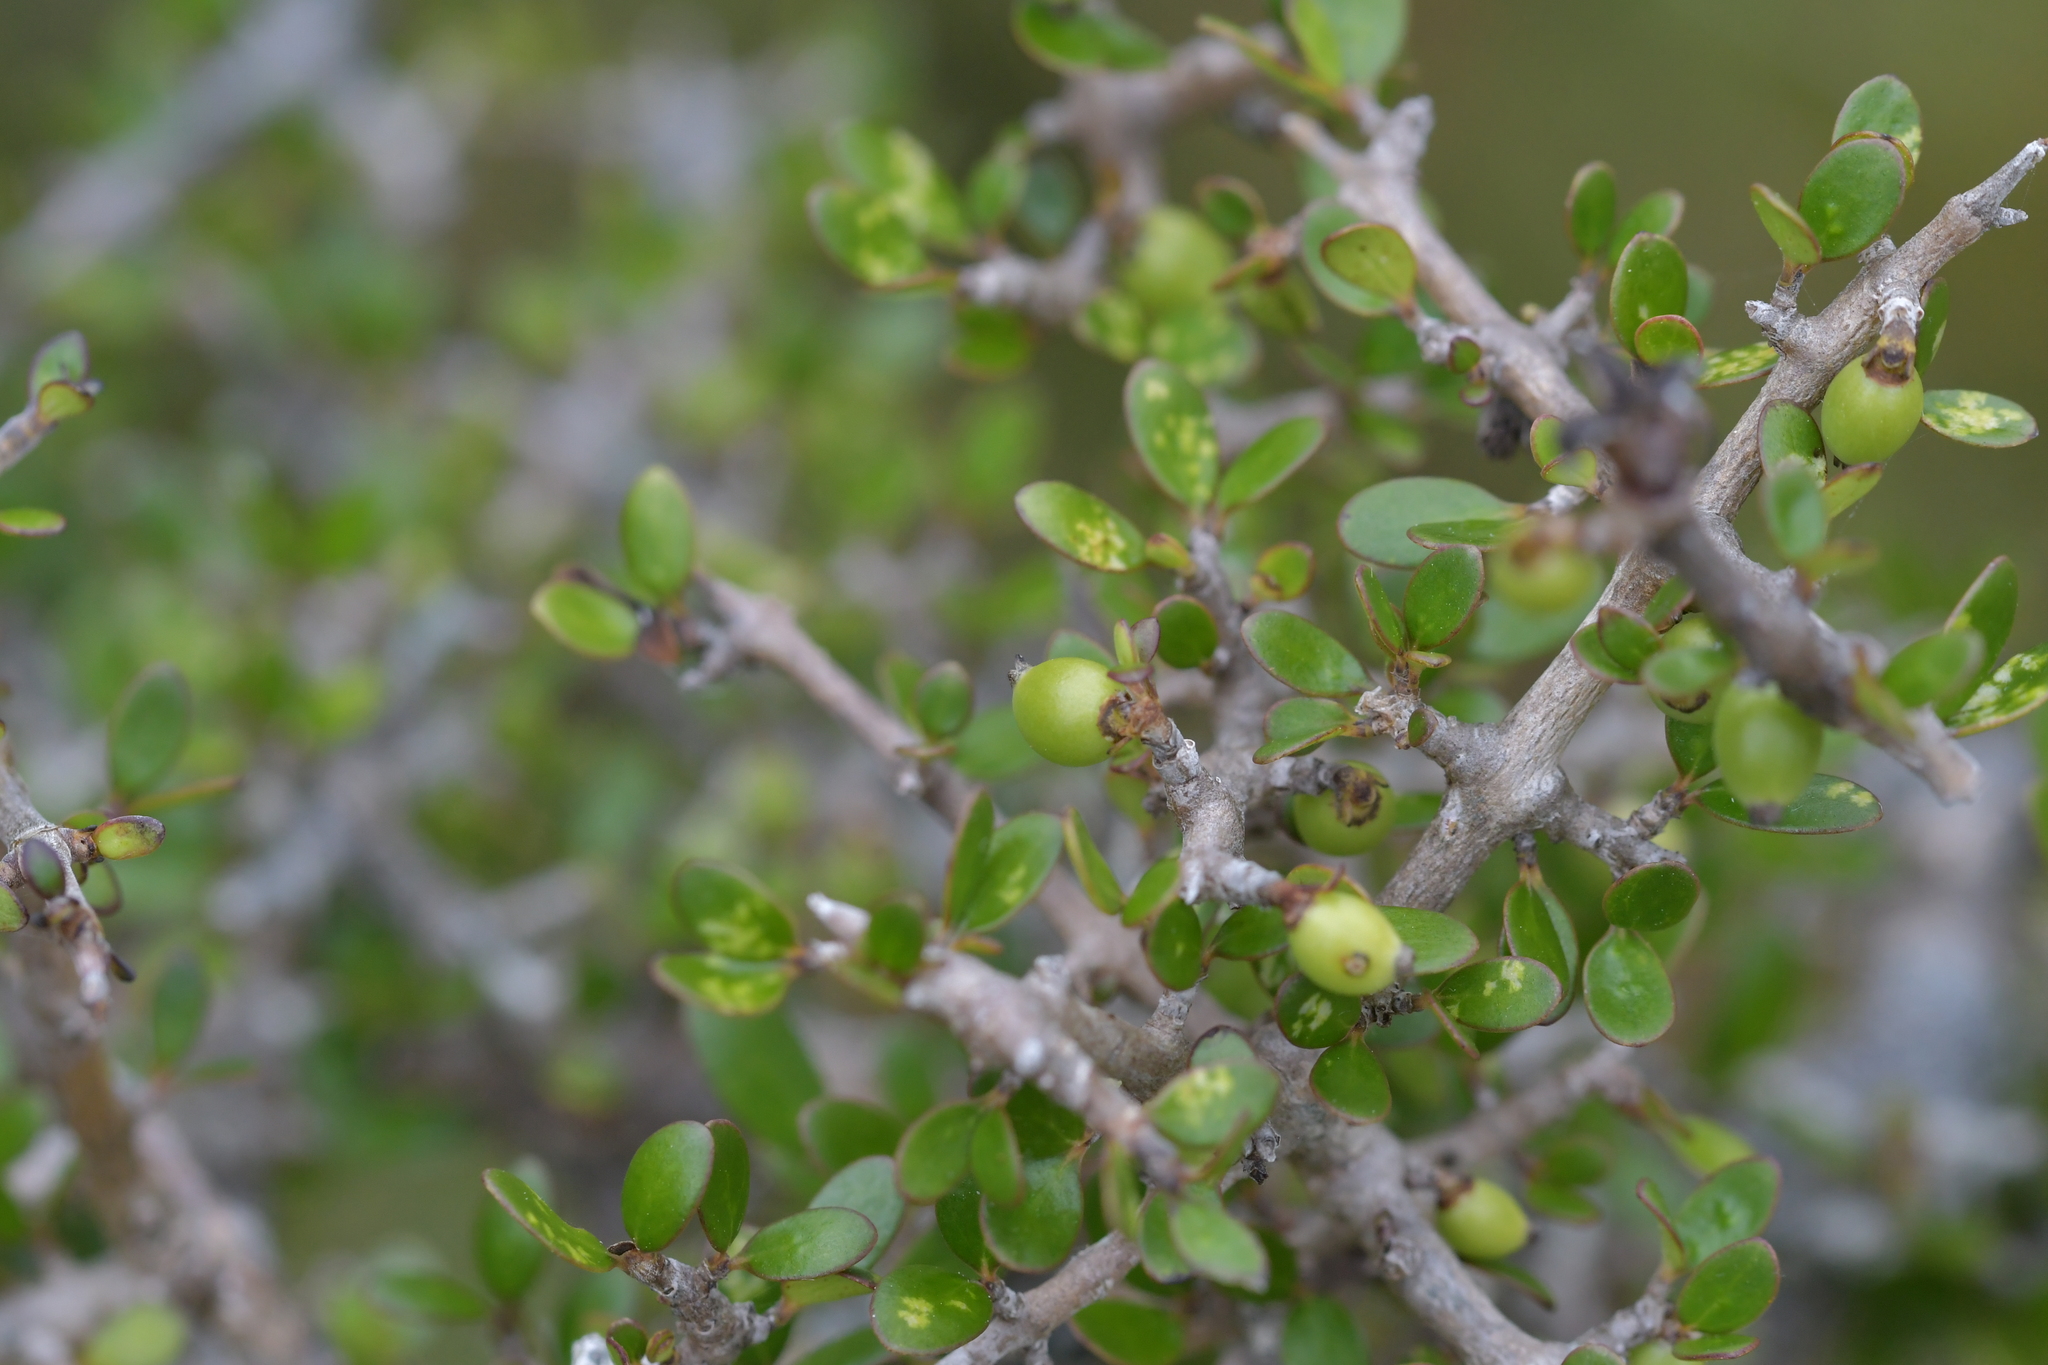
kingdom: Plantae
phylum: Tracheophyta
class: Magnoliopsida
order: Gentianales
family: Rubiaceae
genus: Coprosma
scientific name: Coprosma propinqua
